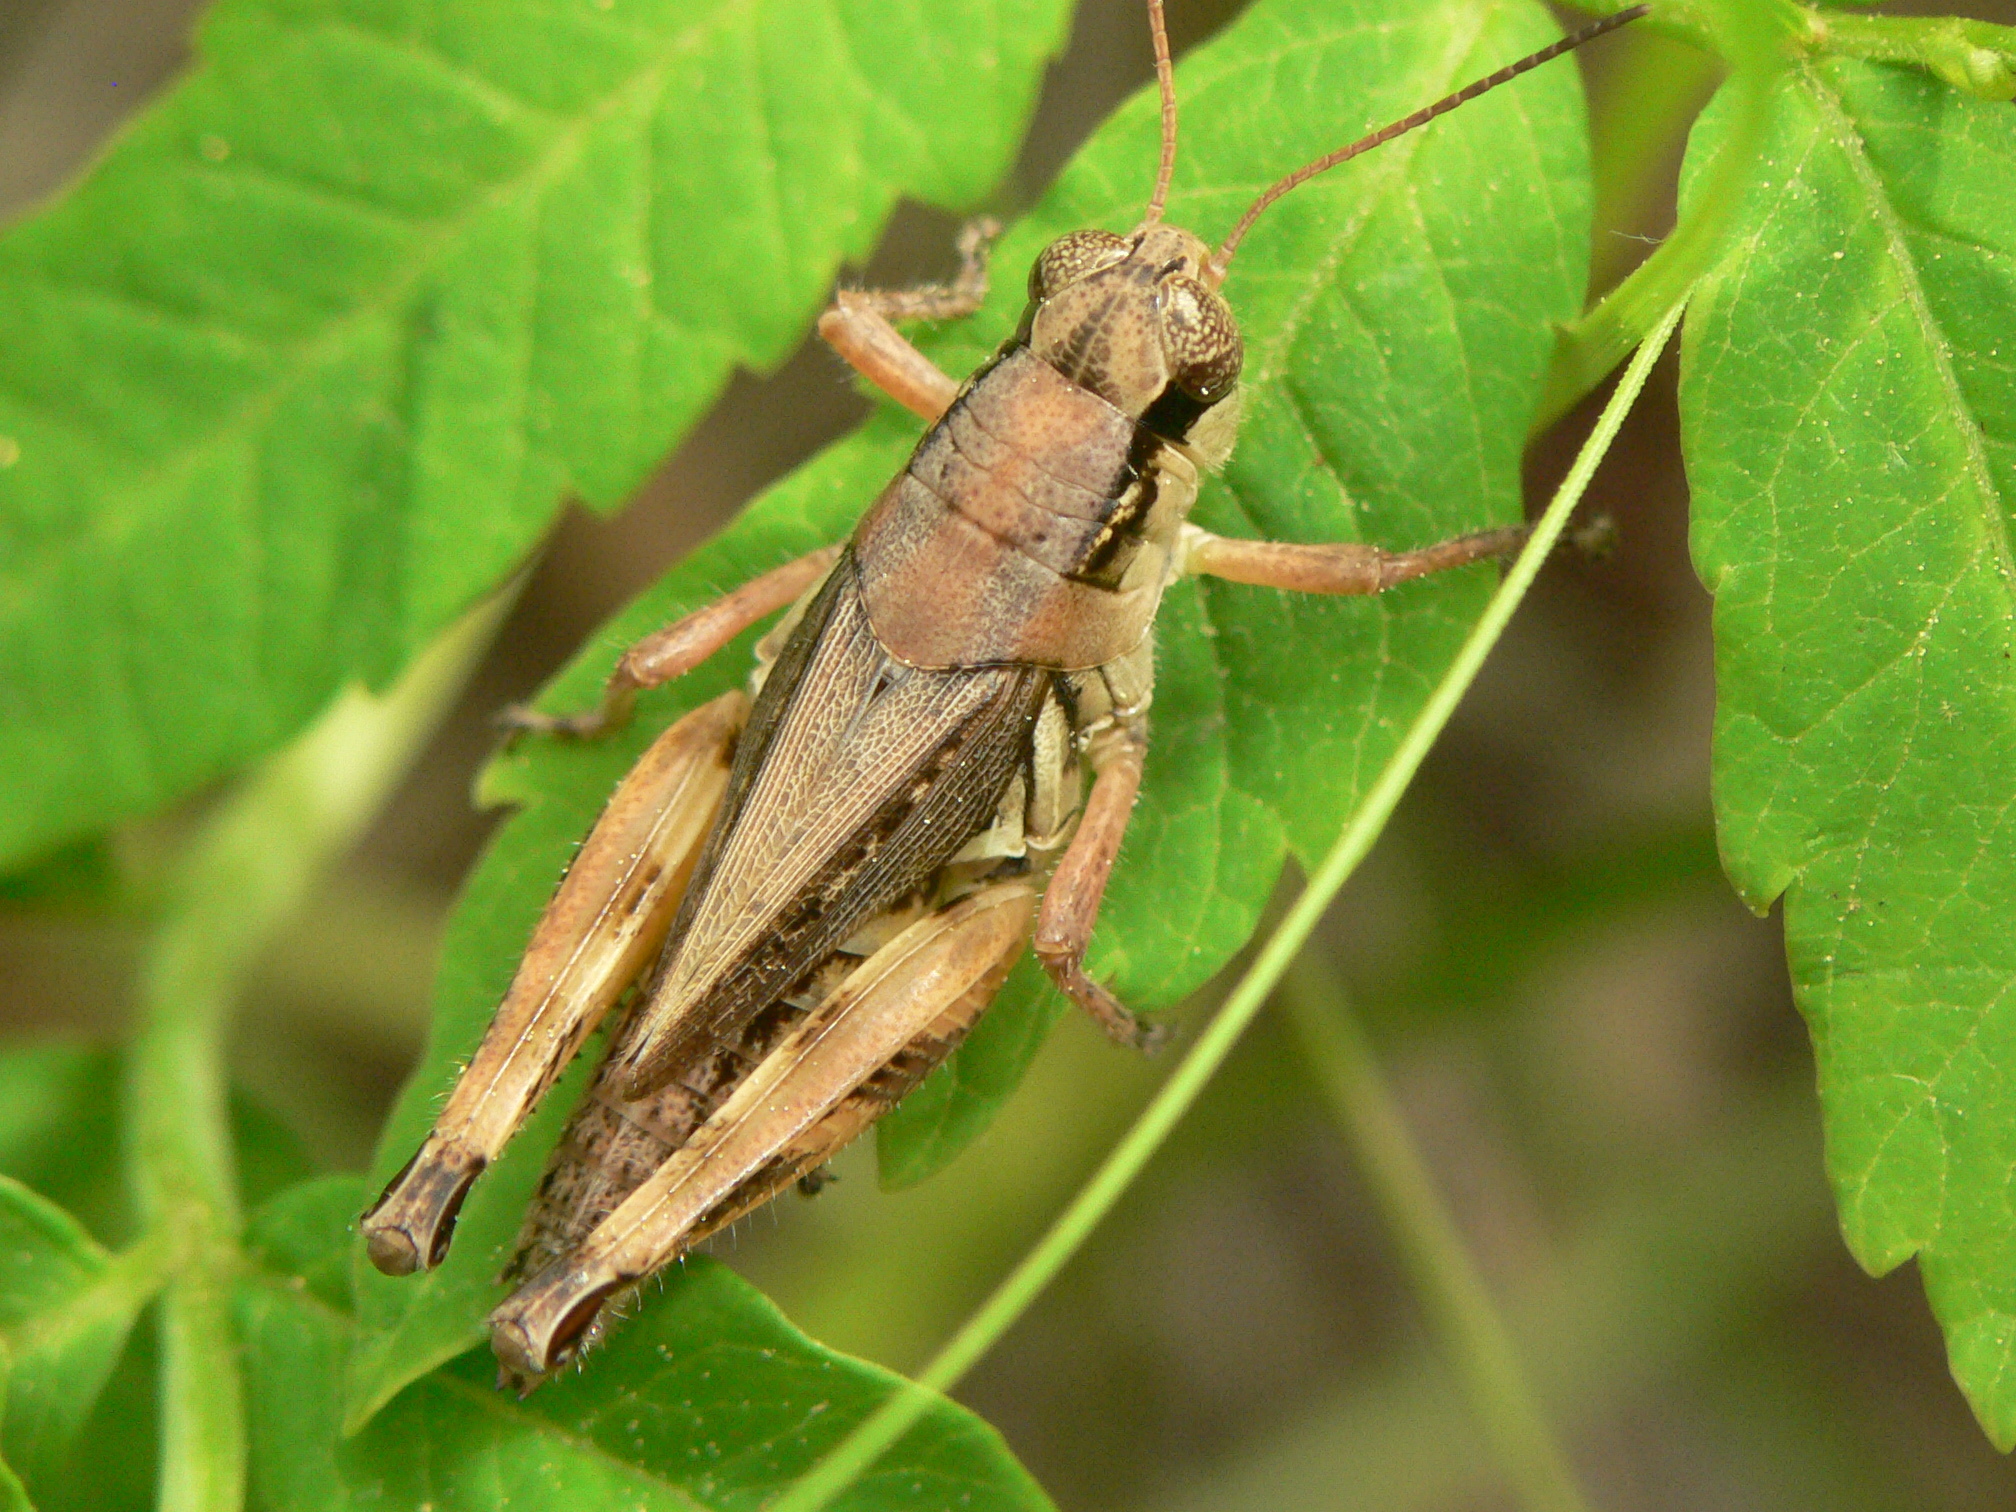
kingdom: Animalia
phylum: Arthropoda
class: Insecta
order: Orthoptera
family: Acrididae
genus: Melanoplus
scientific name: Melanoplus fasciatus
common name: Huckleberry locust
